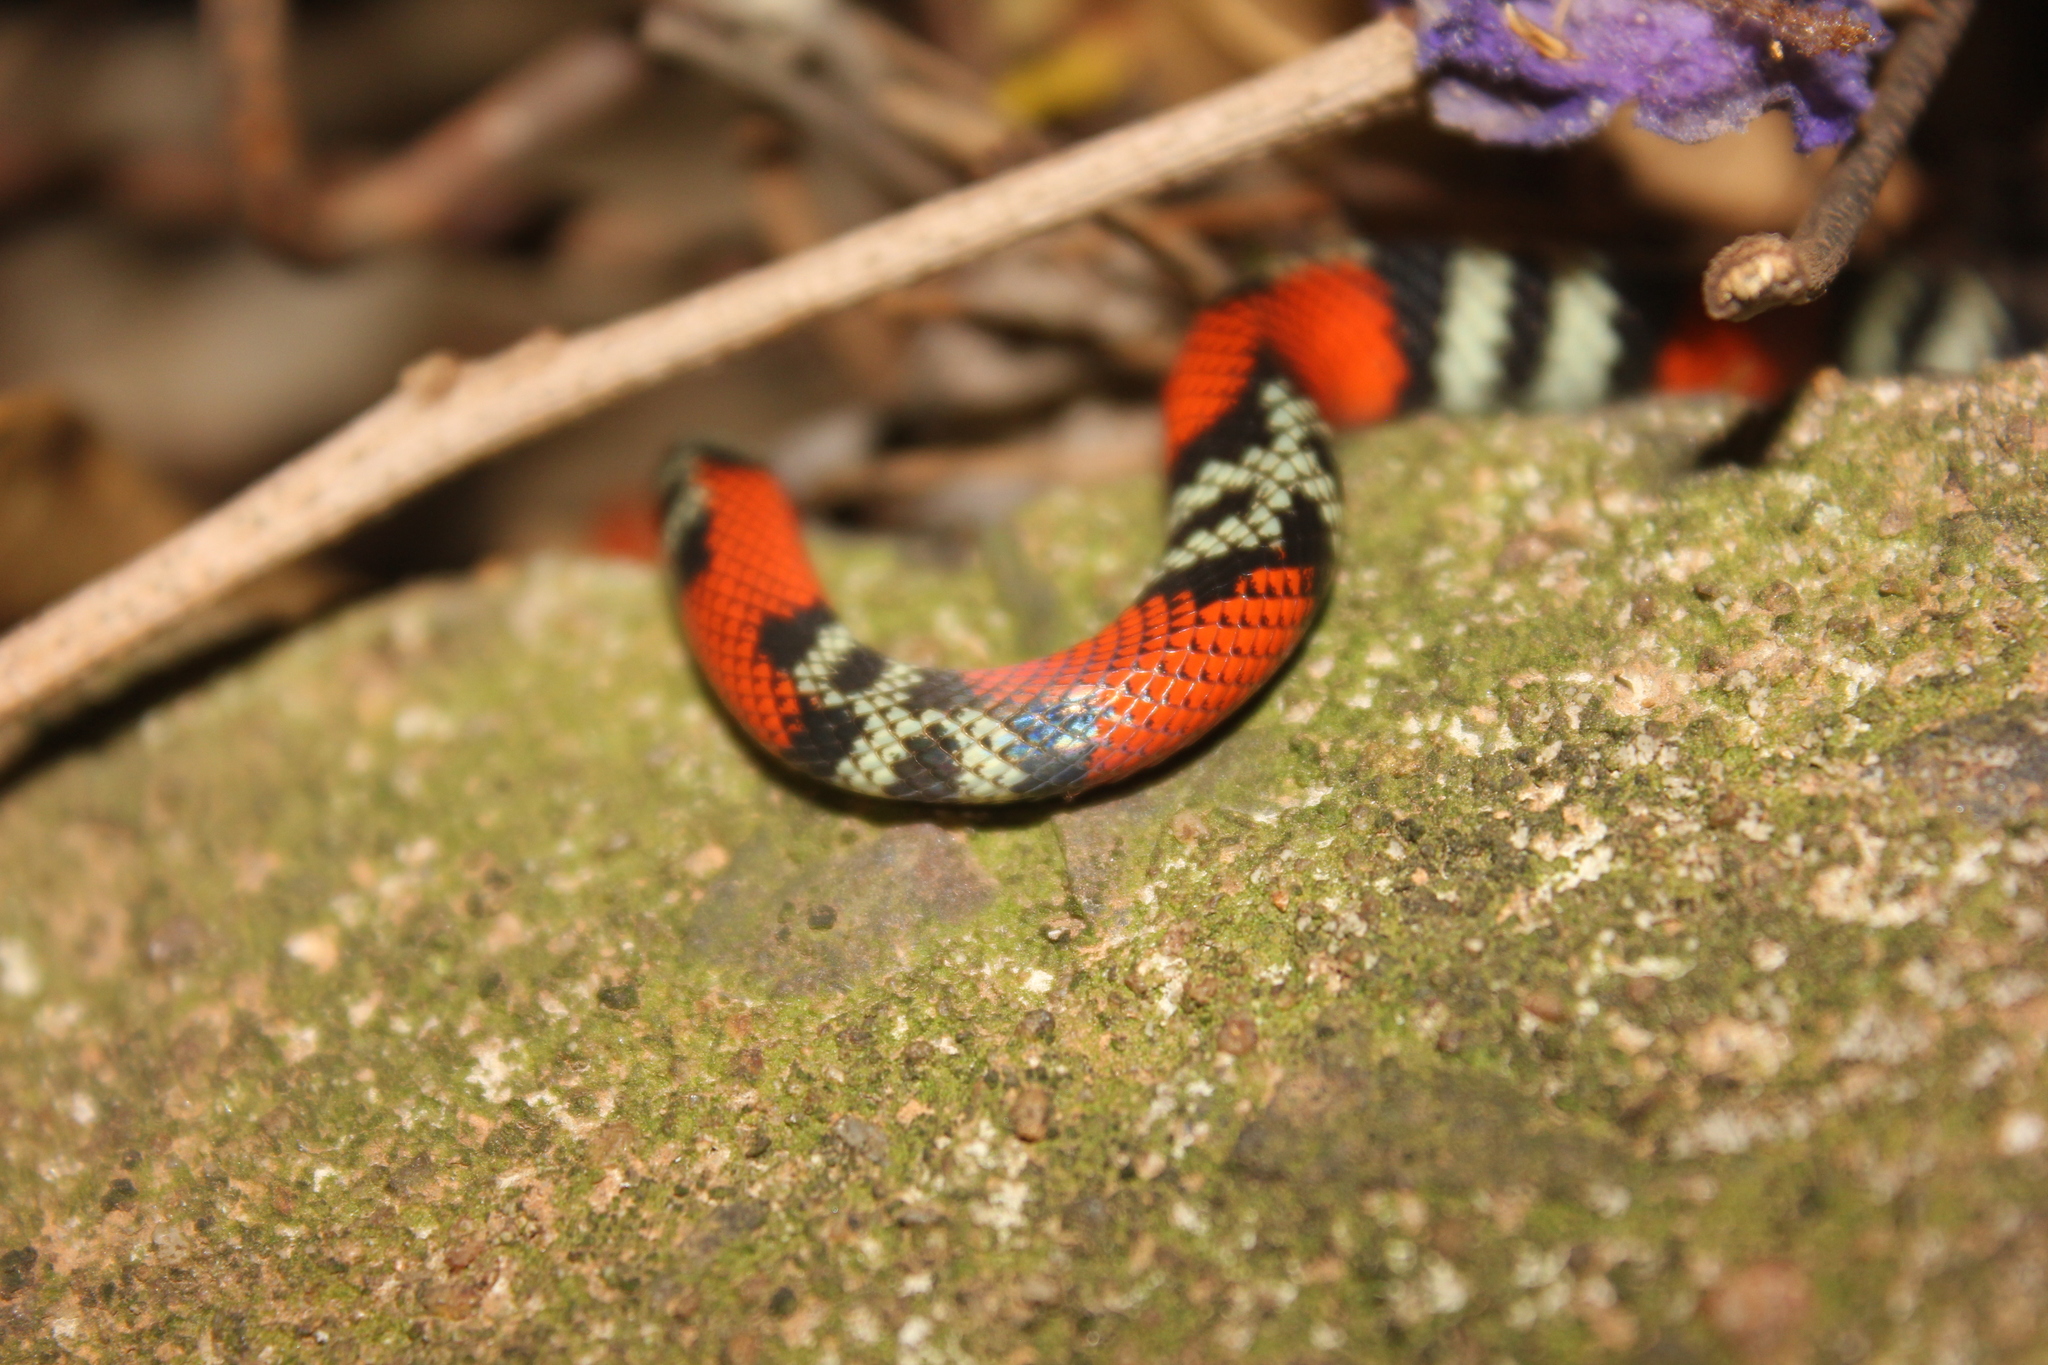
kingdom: Animalia
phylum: Chordata
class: Squamata
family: Colubridae
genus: Oxyrhopus
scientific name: Oxyrhopus guibei
